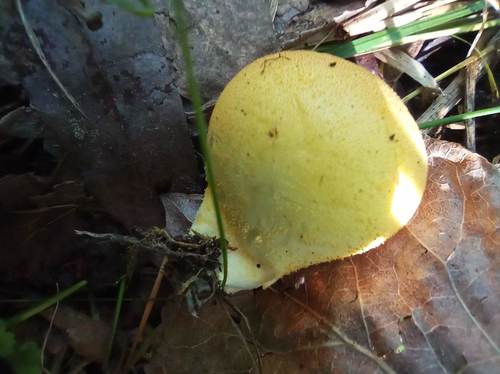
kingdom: Fungi
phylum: Basidiomycota
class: Agaricomycetes
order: Agaricales
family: Lycoperdaceae
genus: Bovista
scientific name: Bovista aestivalis
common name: Deceiving bovist
